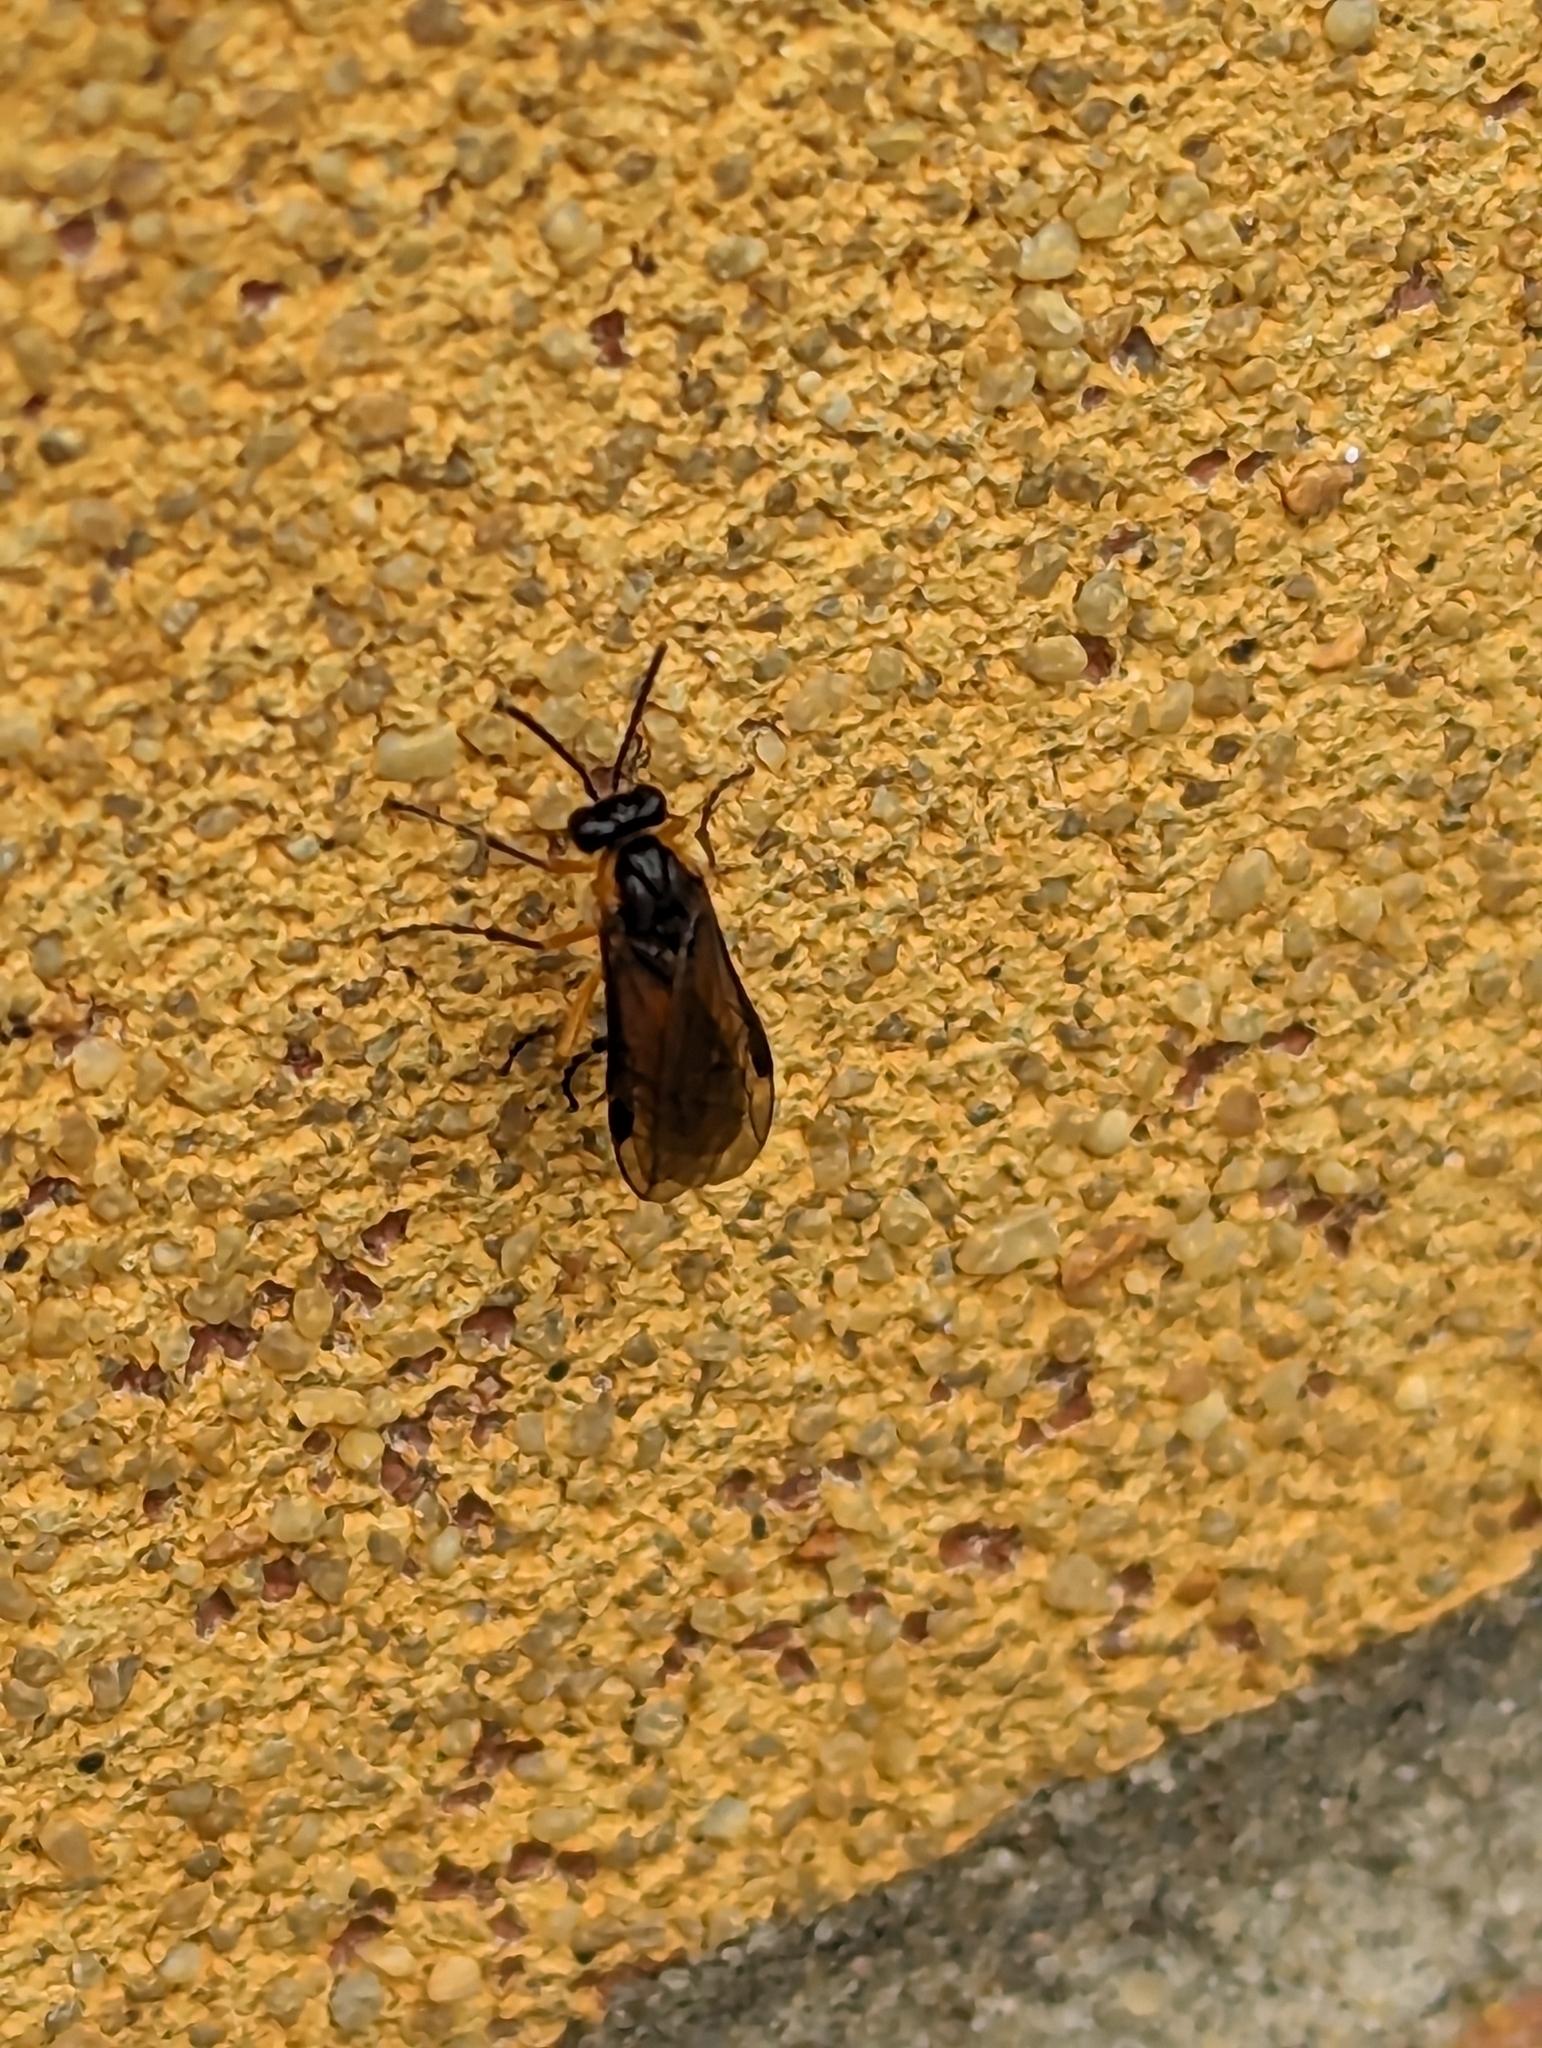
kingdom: Animalia
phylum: Arthropoda
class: Insecta
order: Hymenoptera
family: Tenthredinidae
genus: Athalia
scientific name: Athalia lugens
